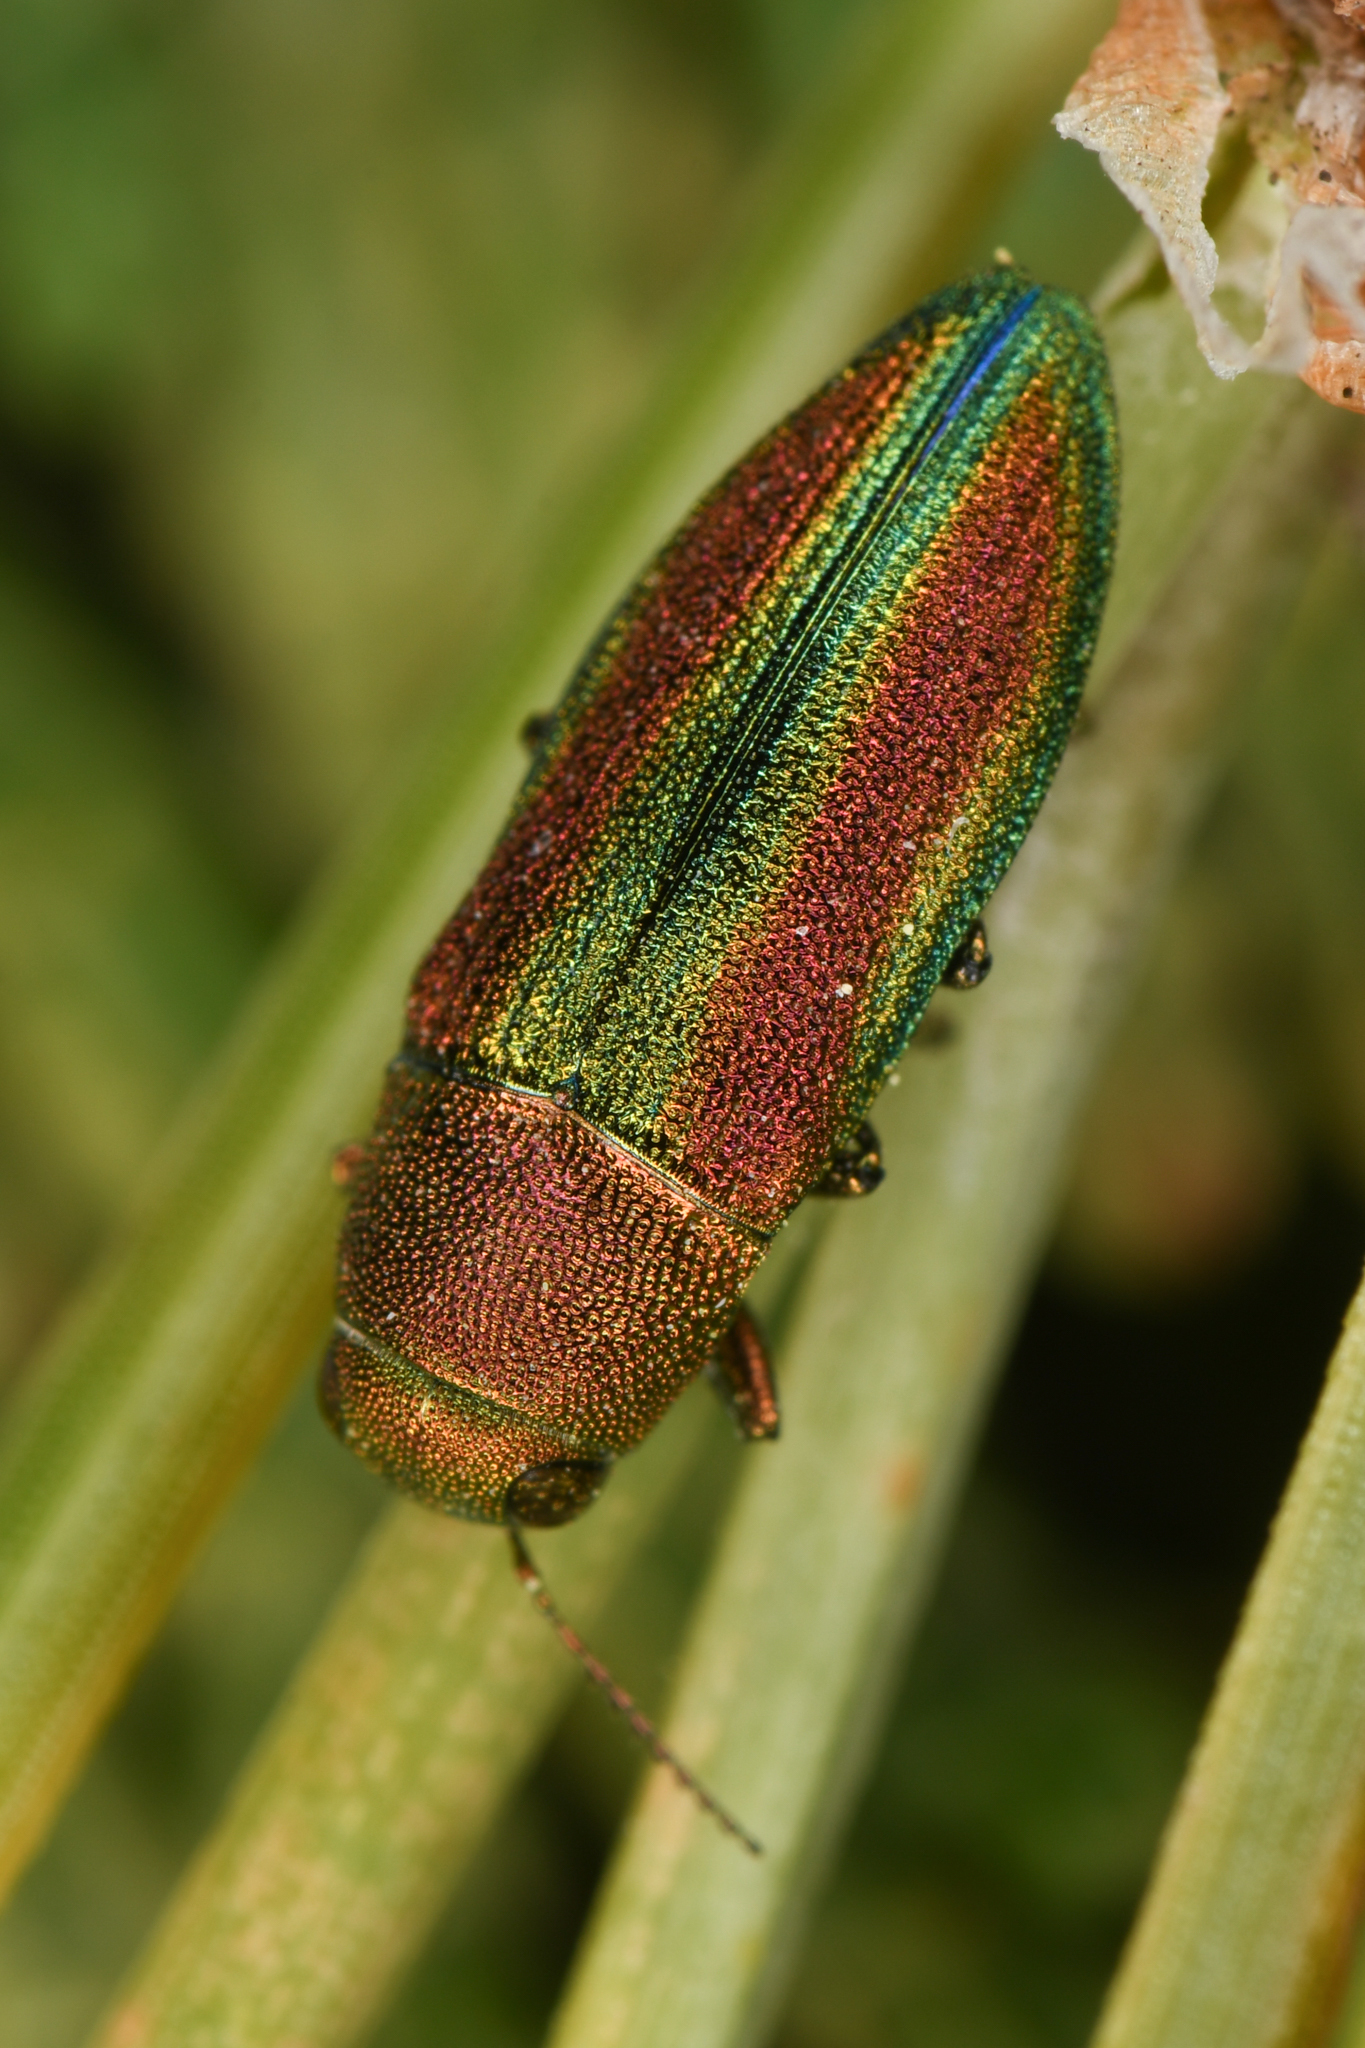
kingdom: Animalia
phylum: Arthropoda
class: Insecta
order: Coleoptera
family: Buprestidae
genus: Chrysophana
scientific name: Chrysophana placida
